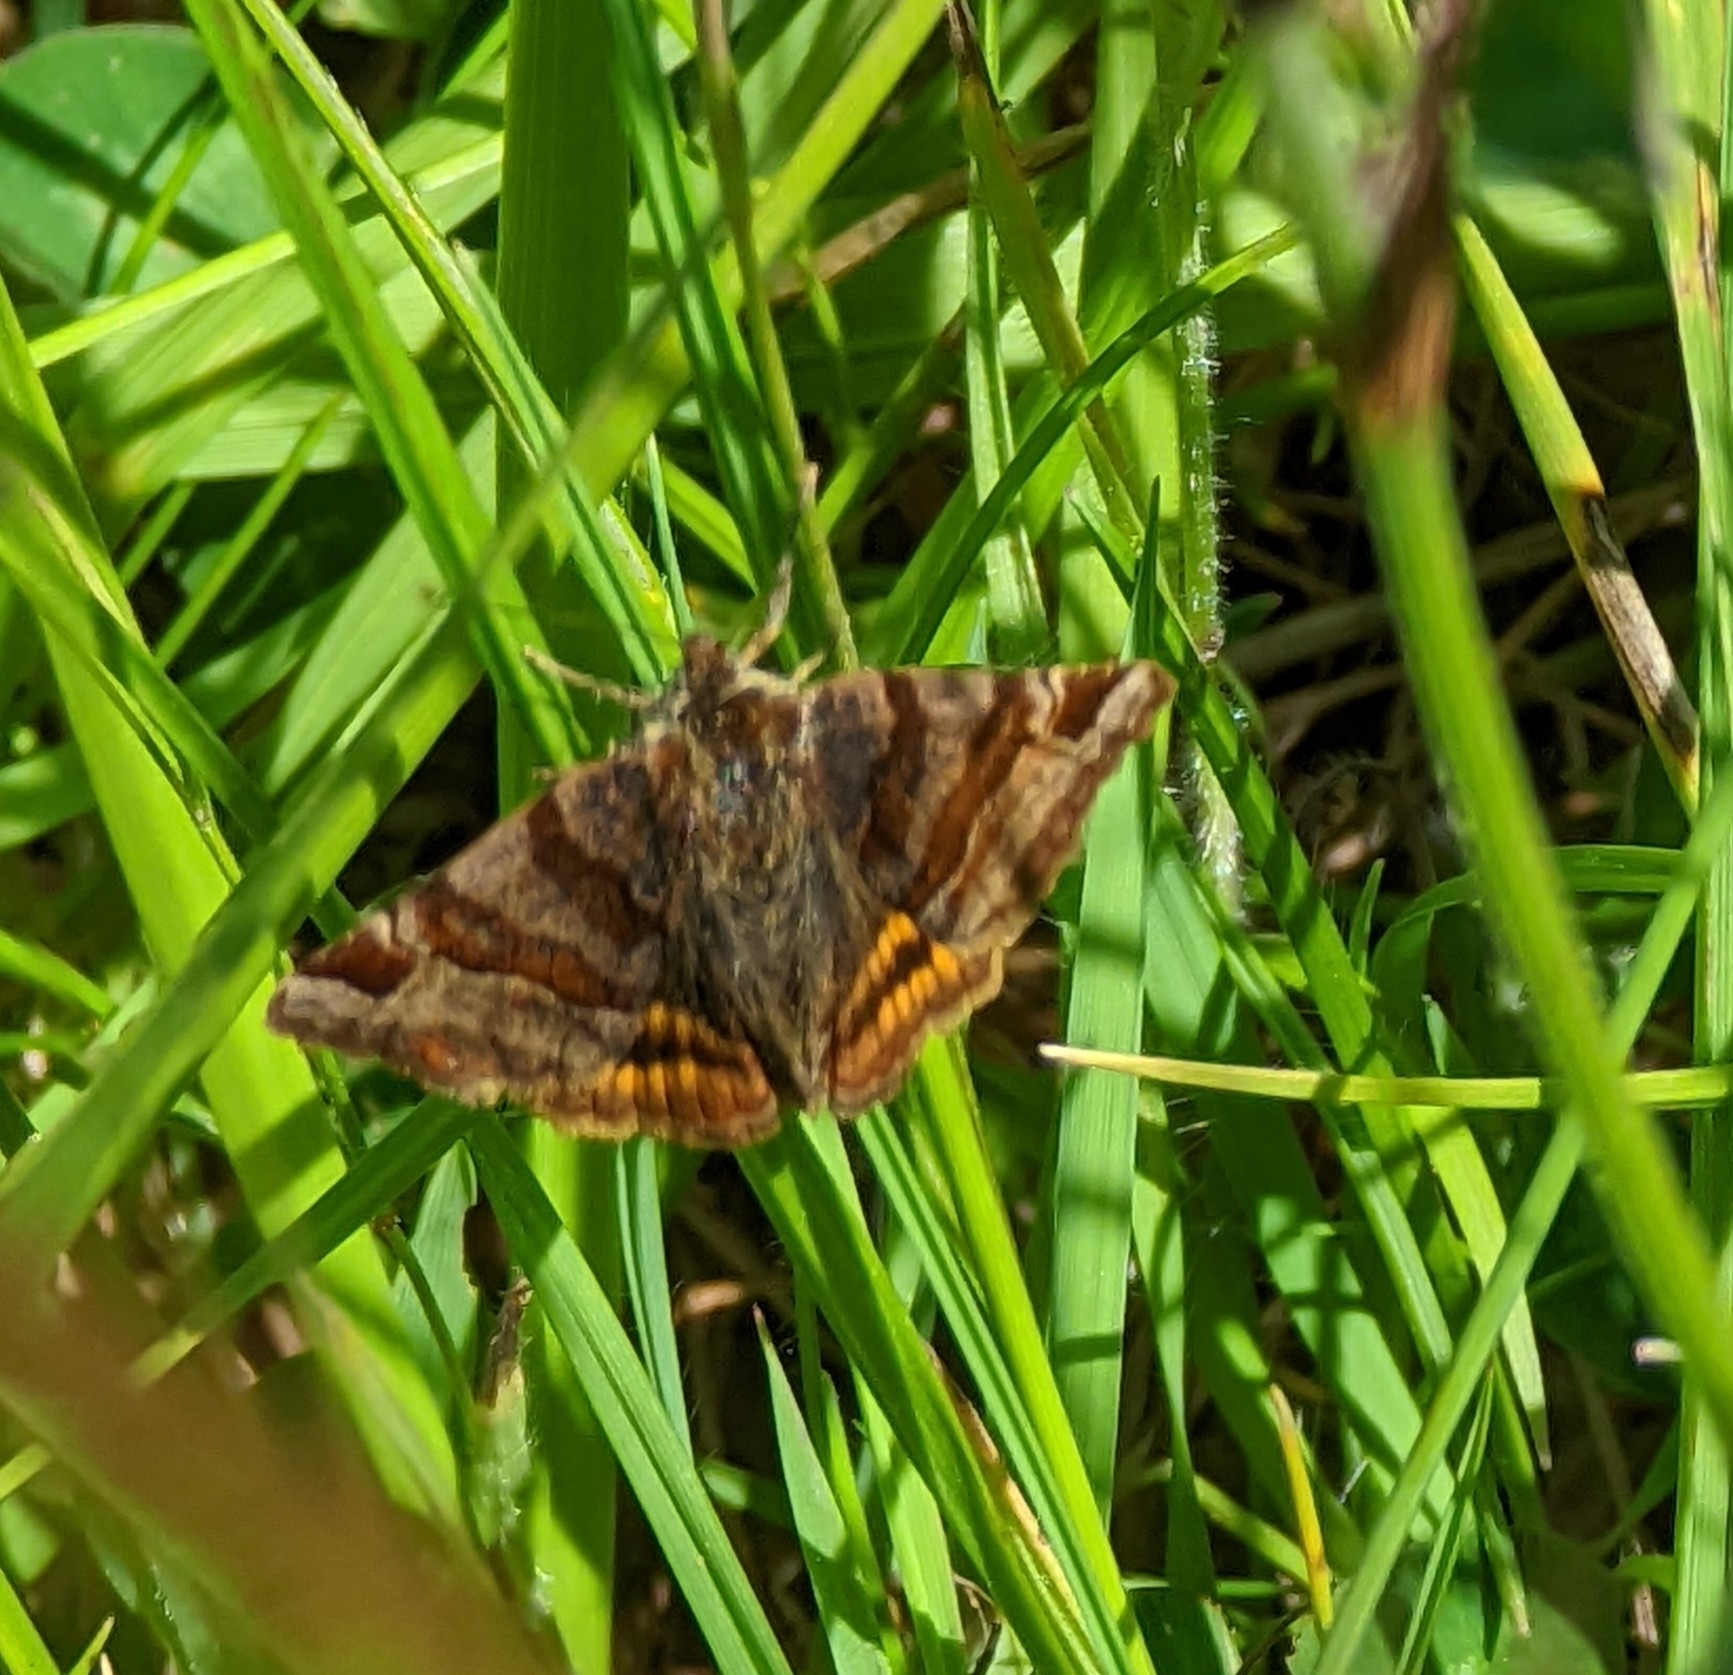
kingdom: Animalia
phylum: Arthropoda
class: Insecta
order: Lepidoptera
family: Erebidae
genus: Euclidia
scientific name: Euclidia glyphica
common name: Burnet companion
